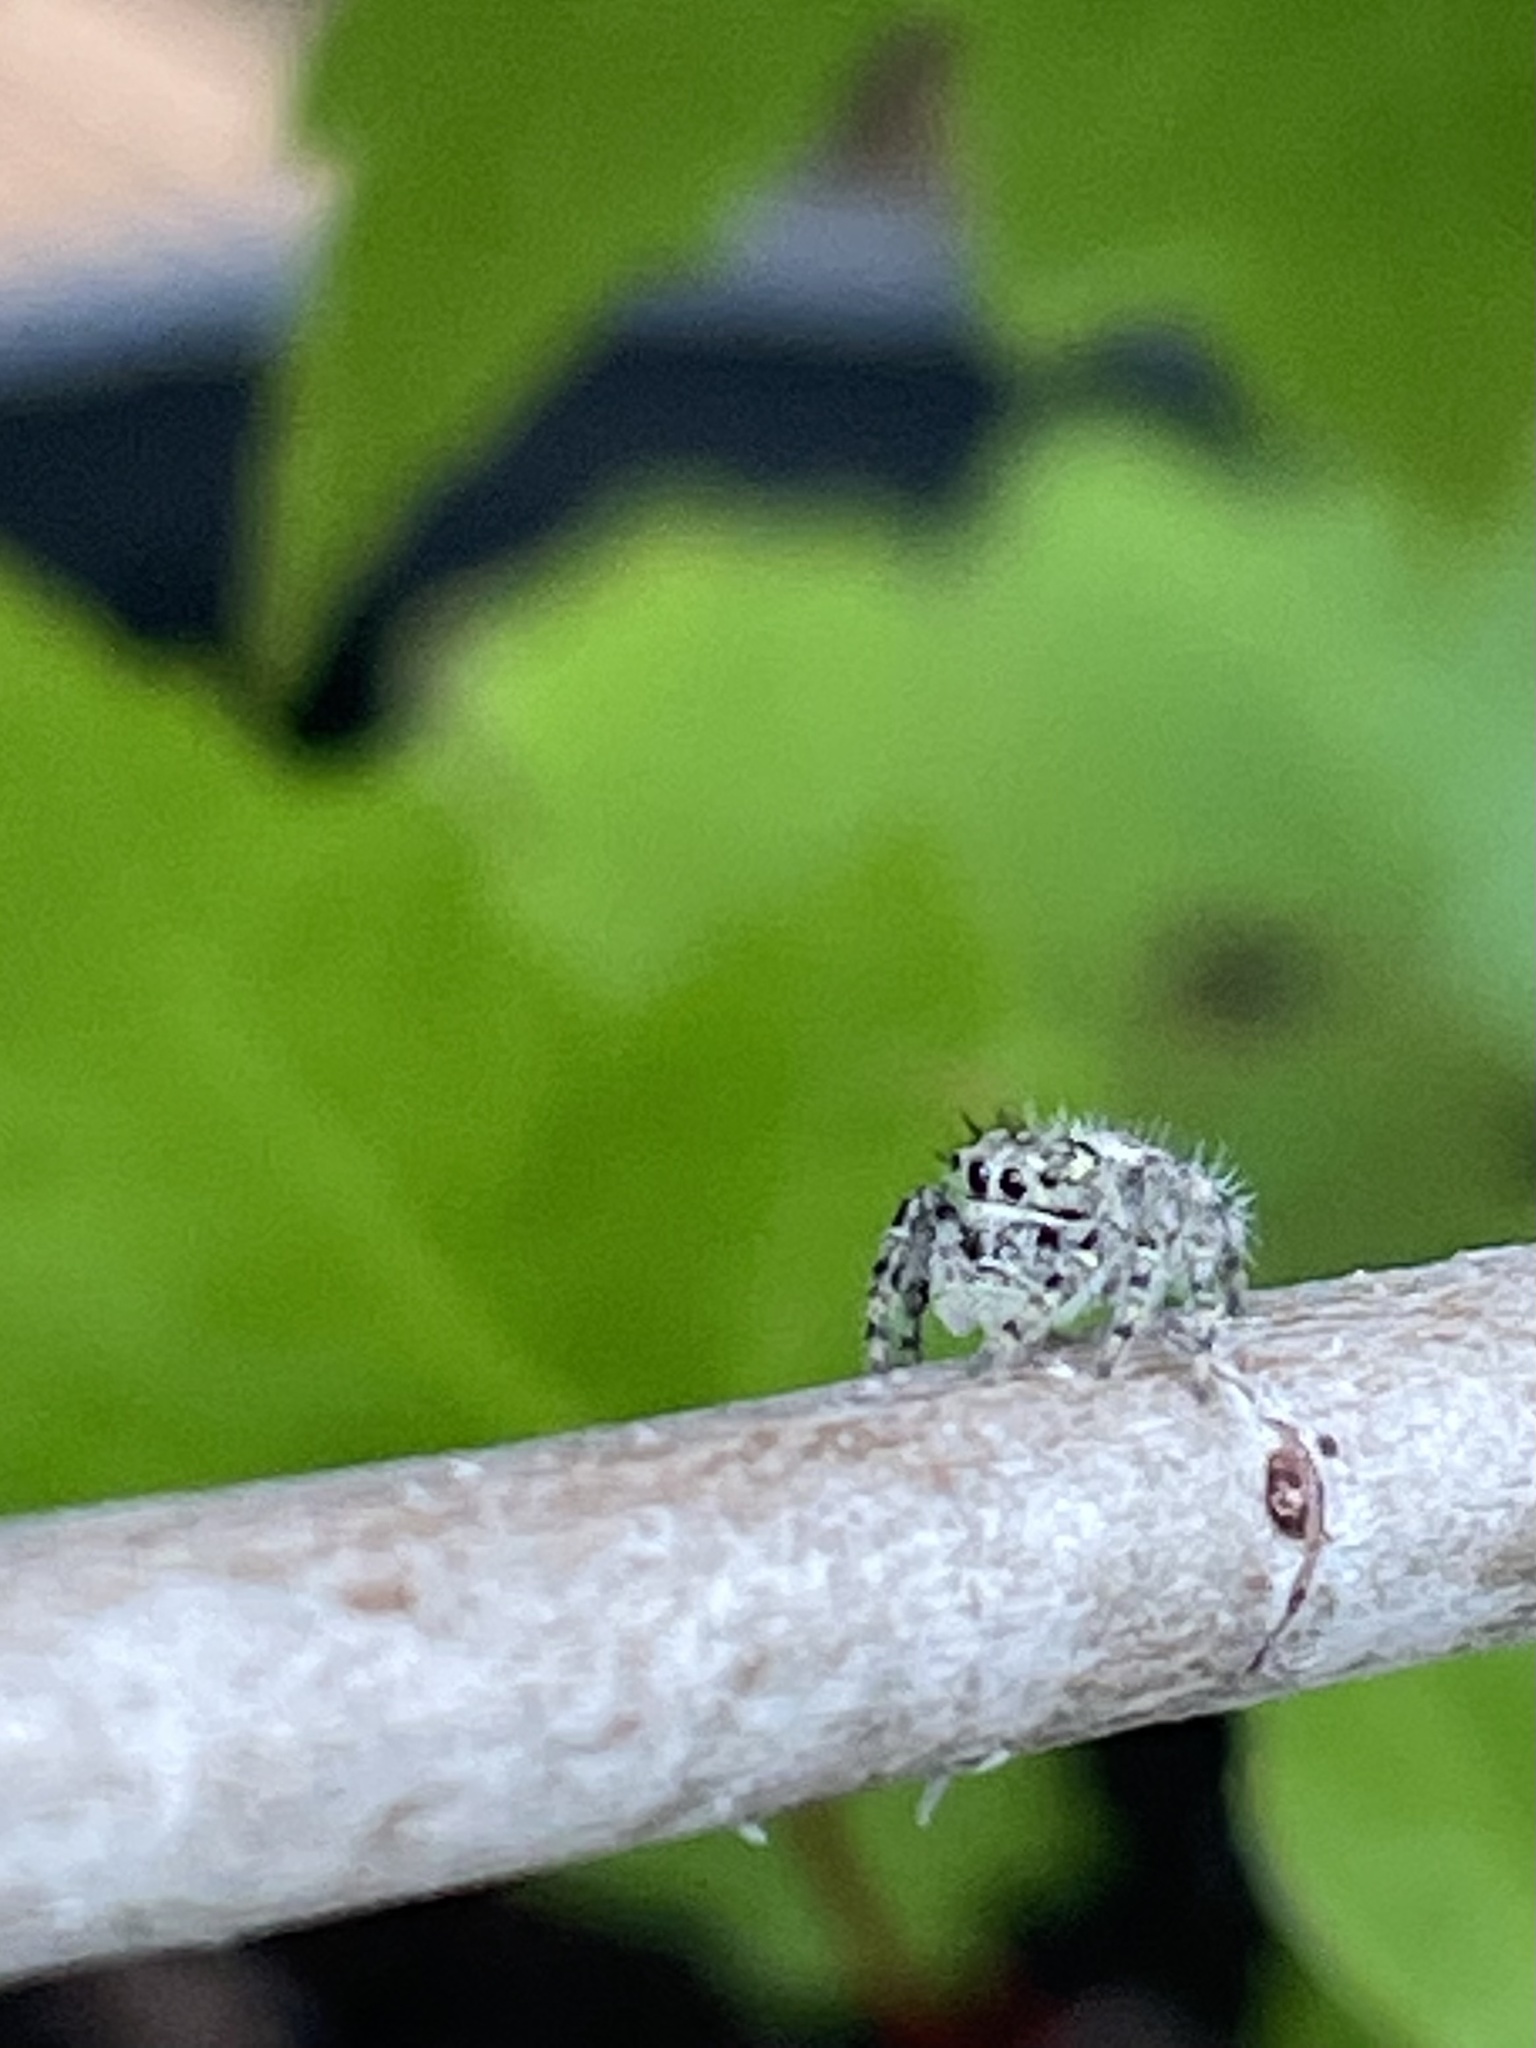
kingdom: Animalia
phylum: Arthropoda
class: Arachnida
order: Araneae
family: Salticidae
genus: Phidippus
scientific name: Phidippus putnami
